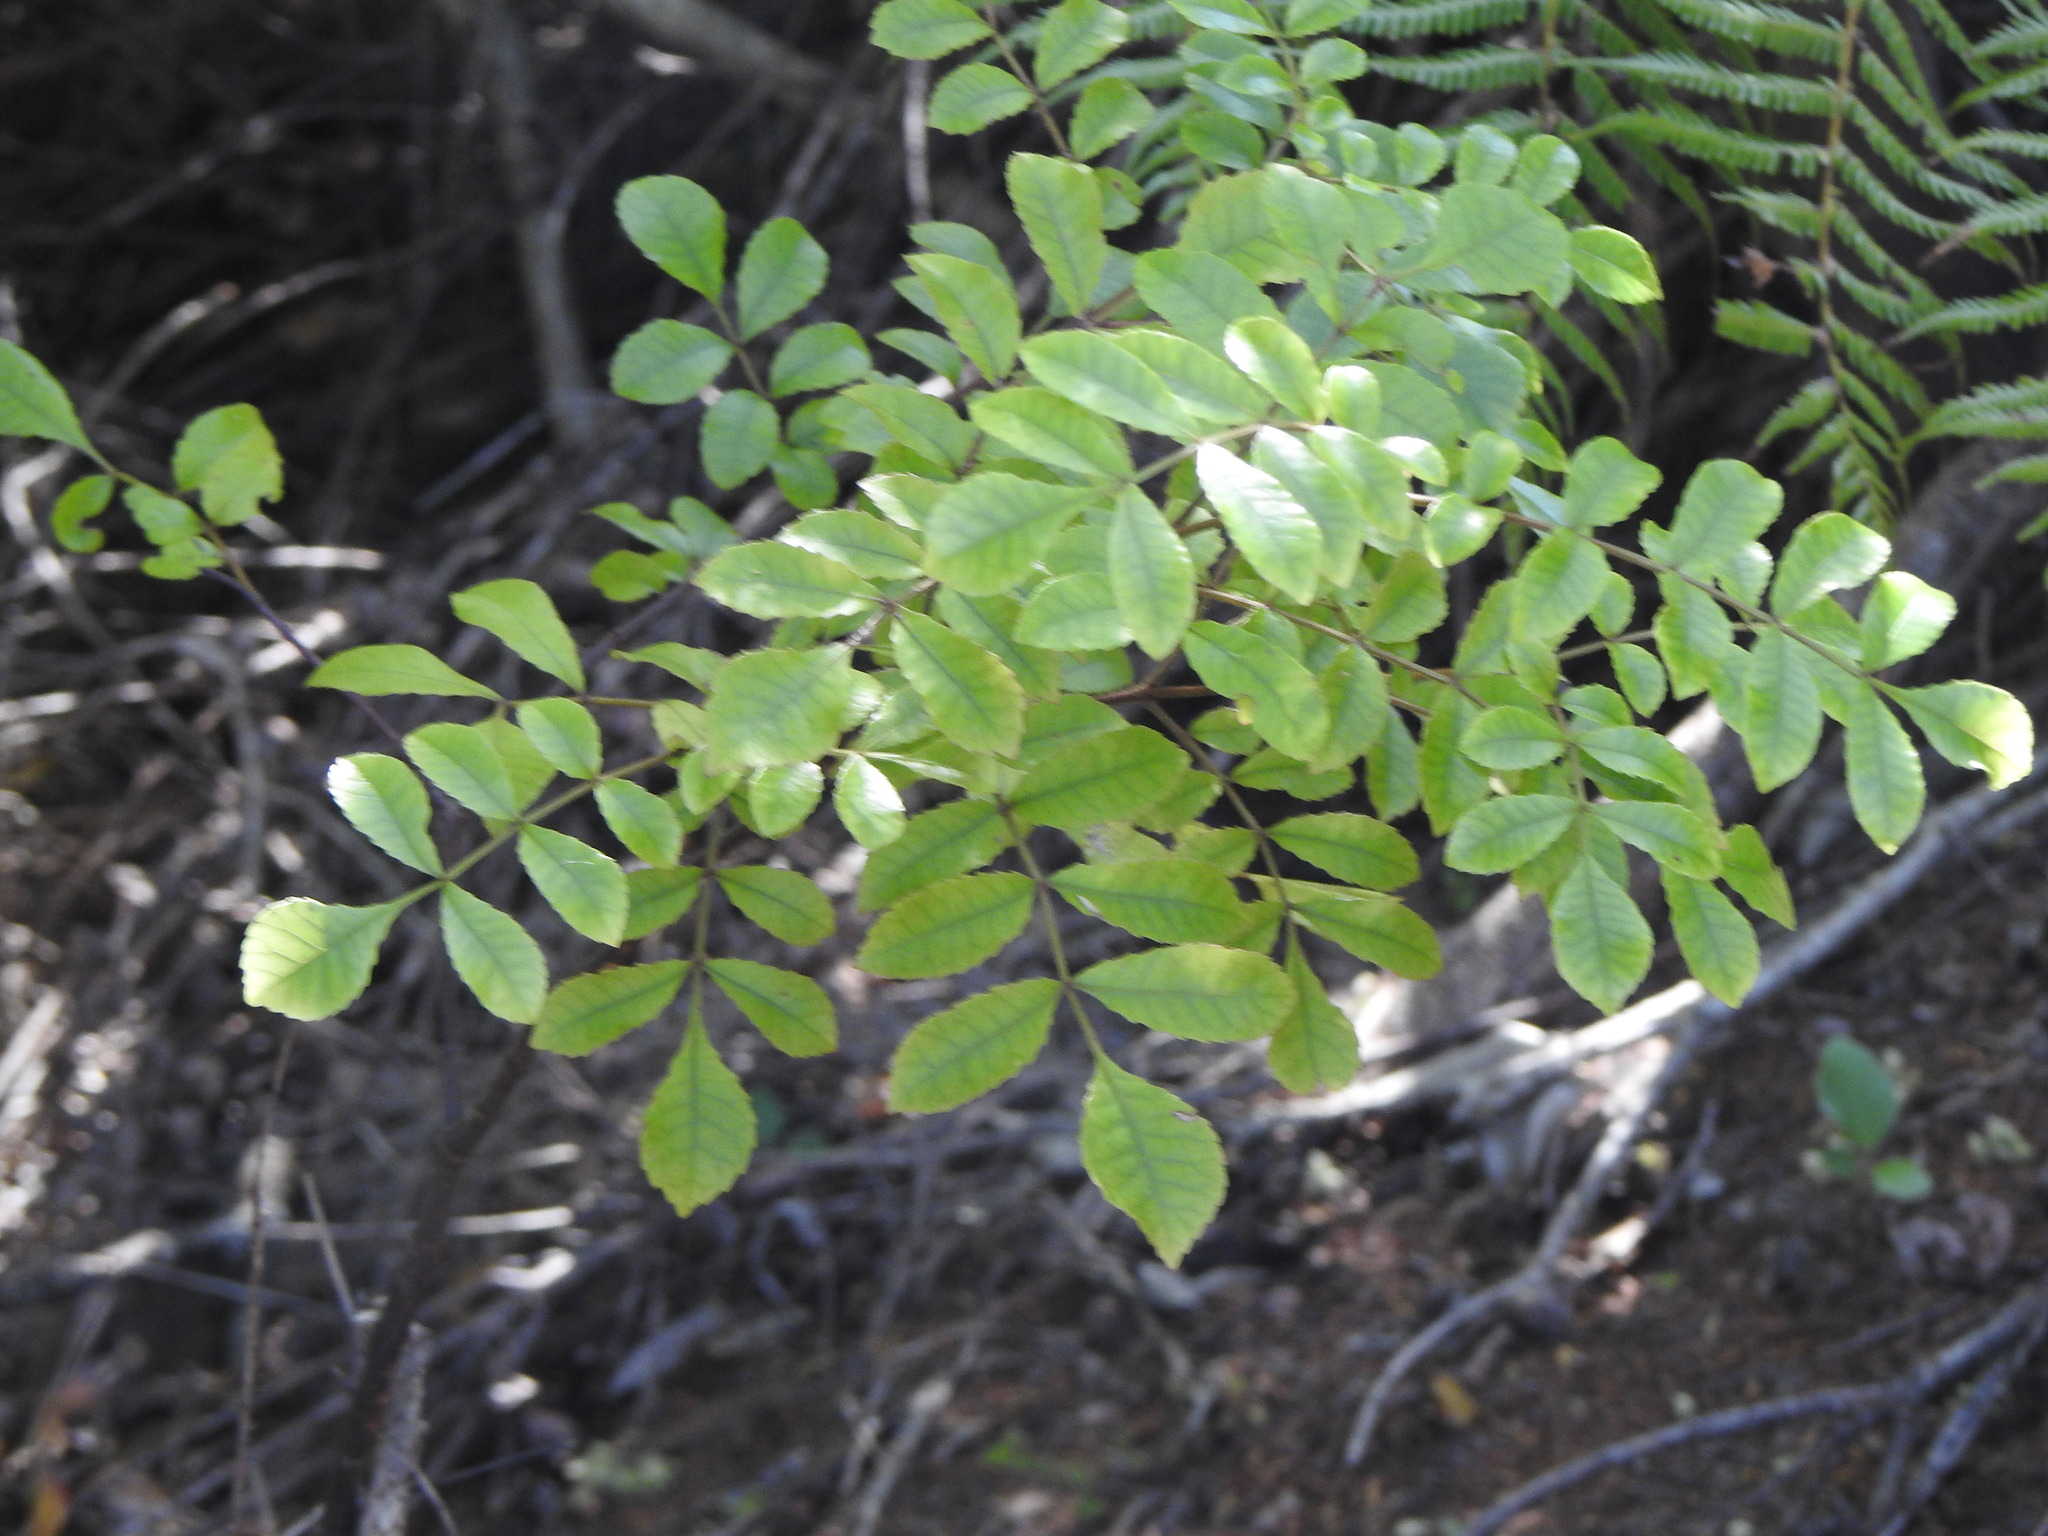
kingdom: Plantae
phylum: Tracheophyta
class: Magnoliopsida
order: Oxalidales
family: Cunoniaceae
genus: Pterophylla
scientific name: Pterophylla sylvicola
